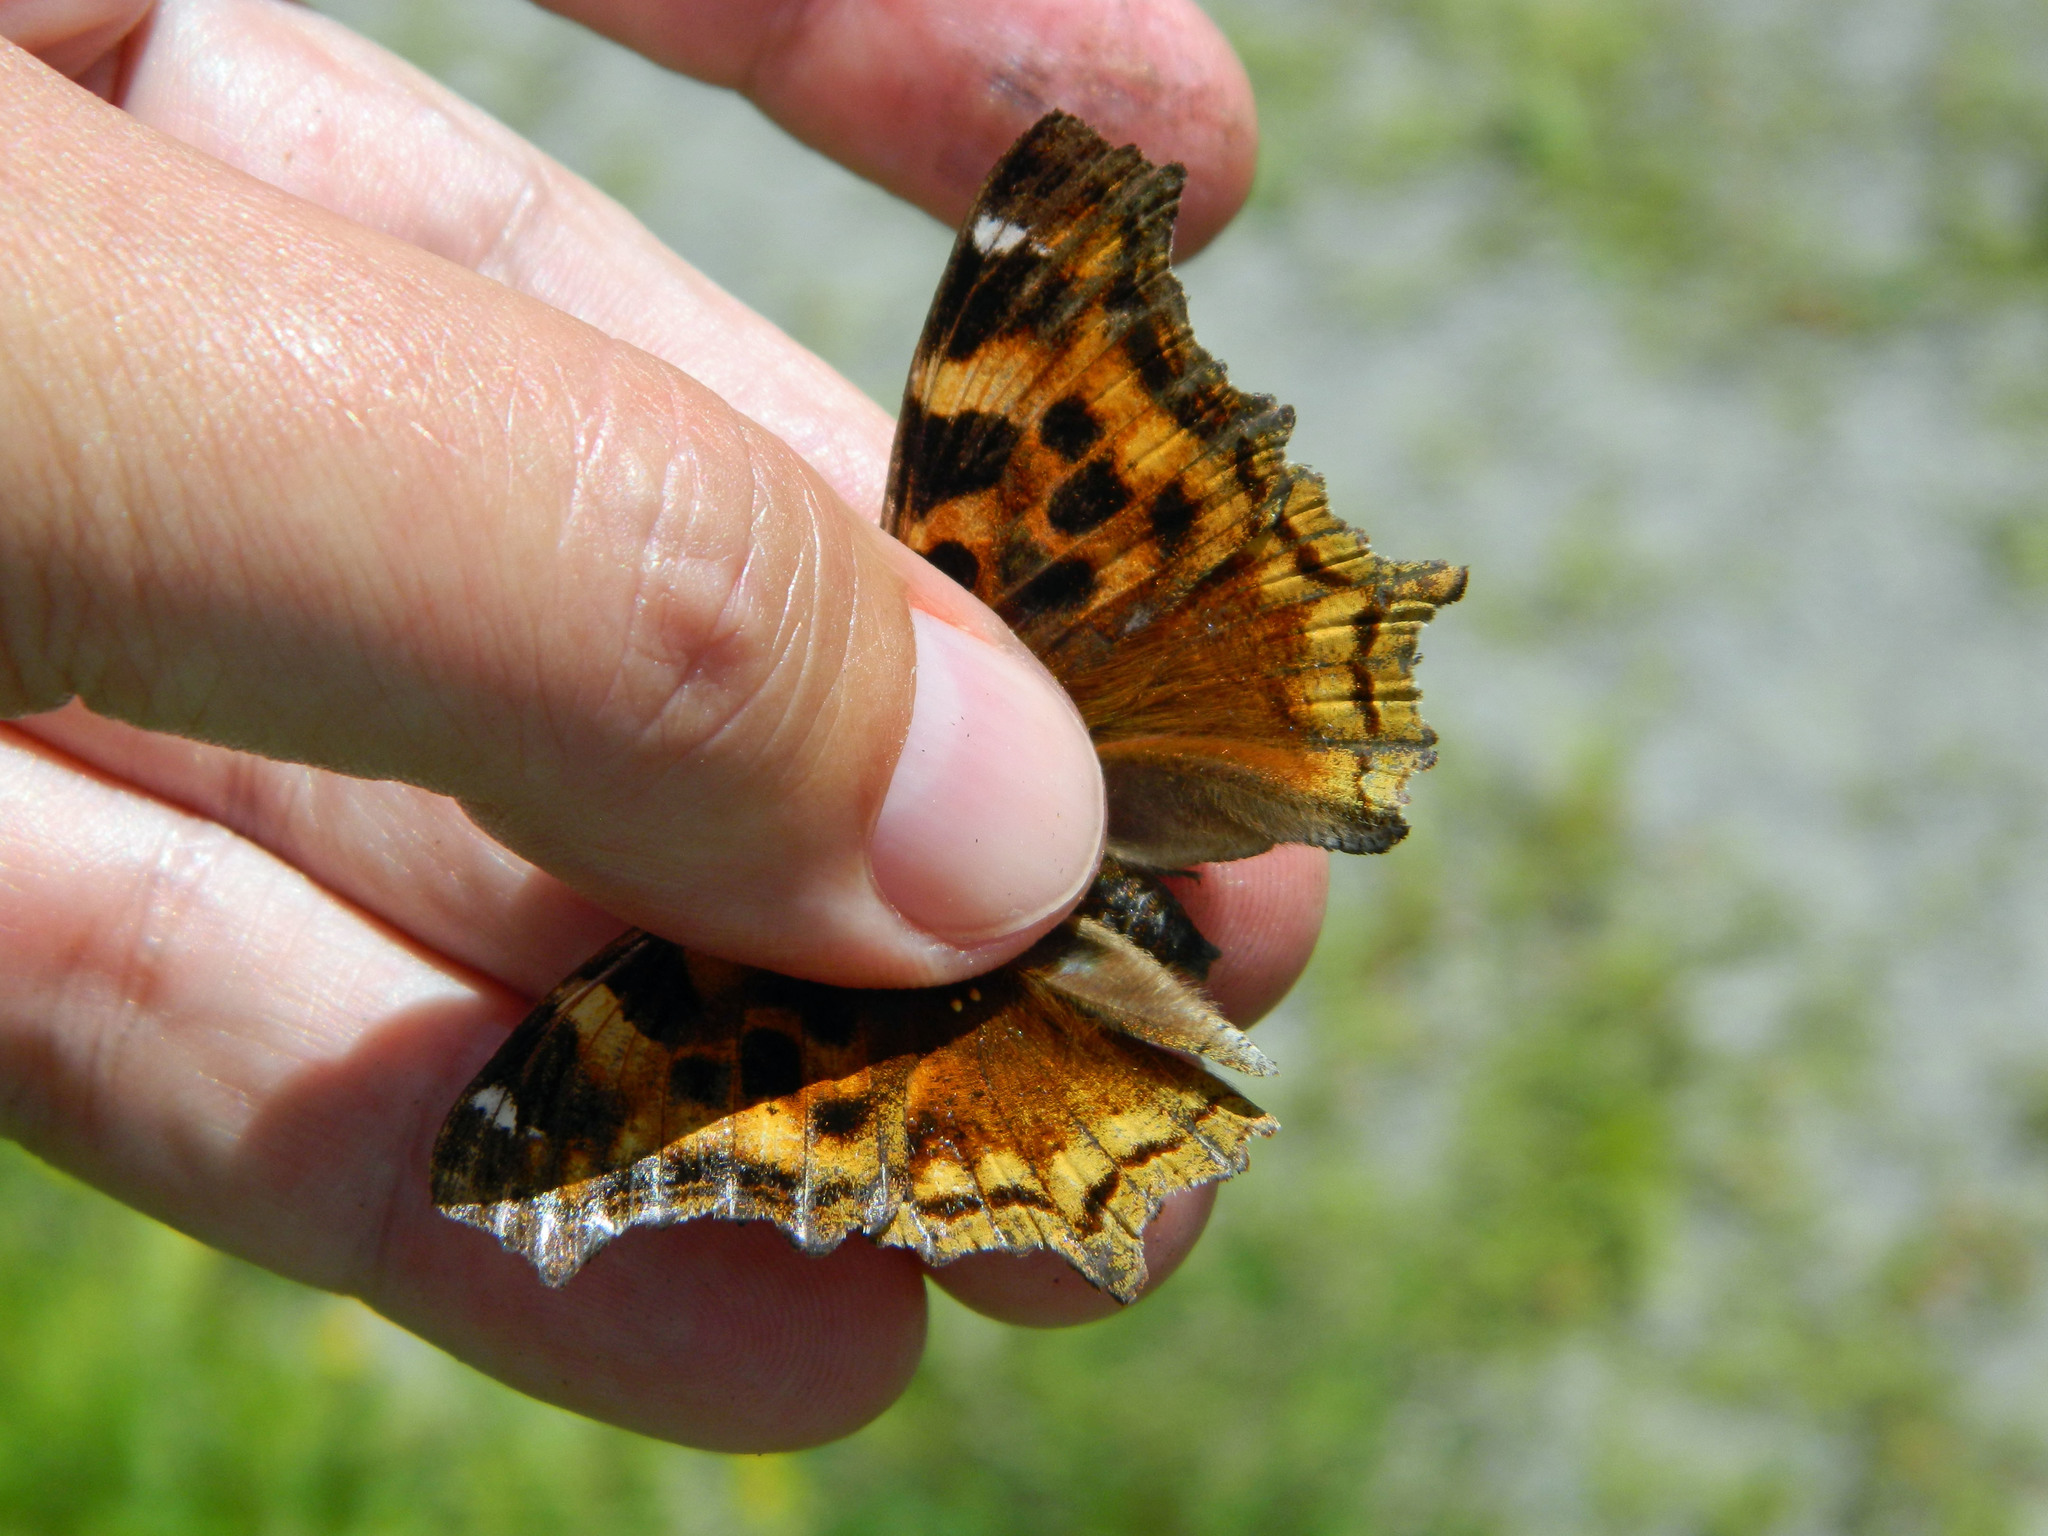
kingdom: Animalia
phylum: Arthropoda
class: Insecta
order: Lepidoptera
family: Nymphalidae
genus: Polygonia
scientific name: Polygonia vaualbum
